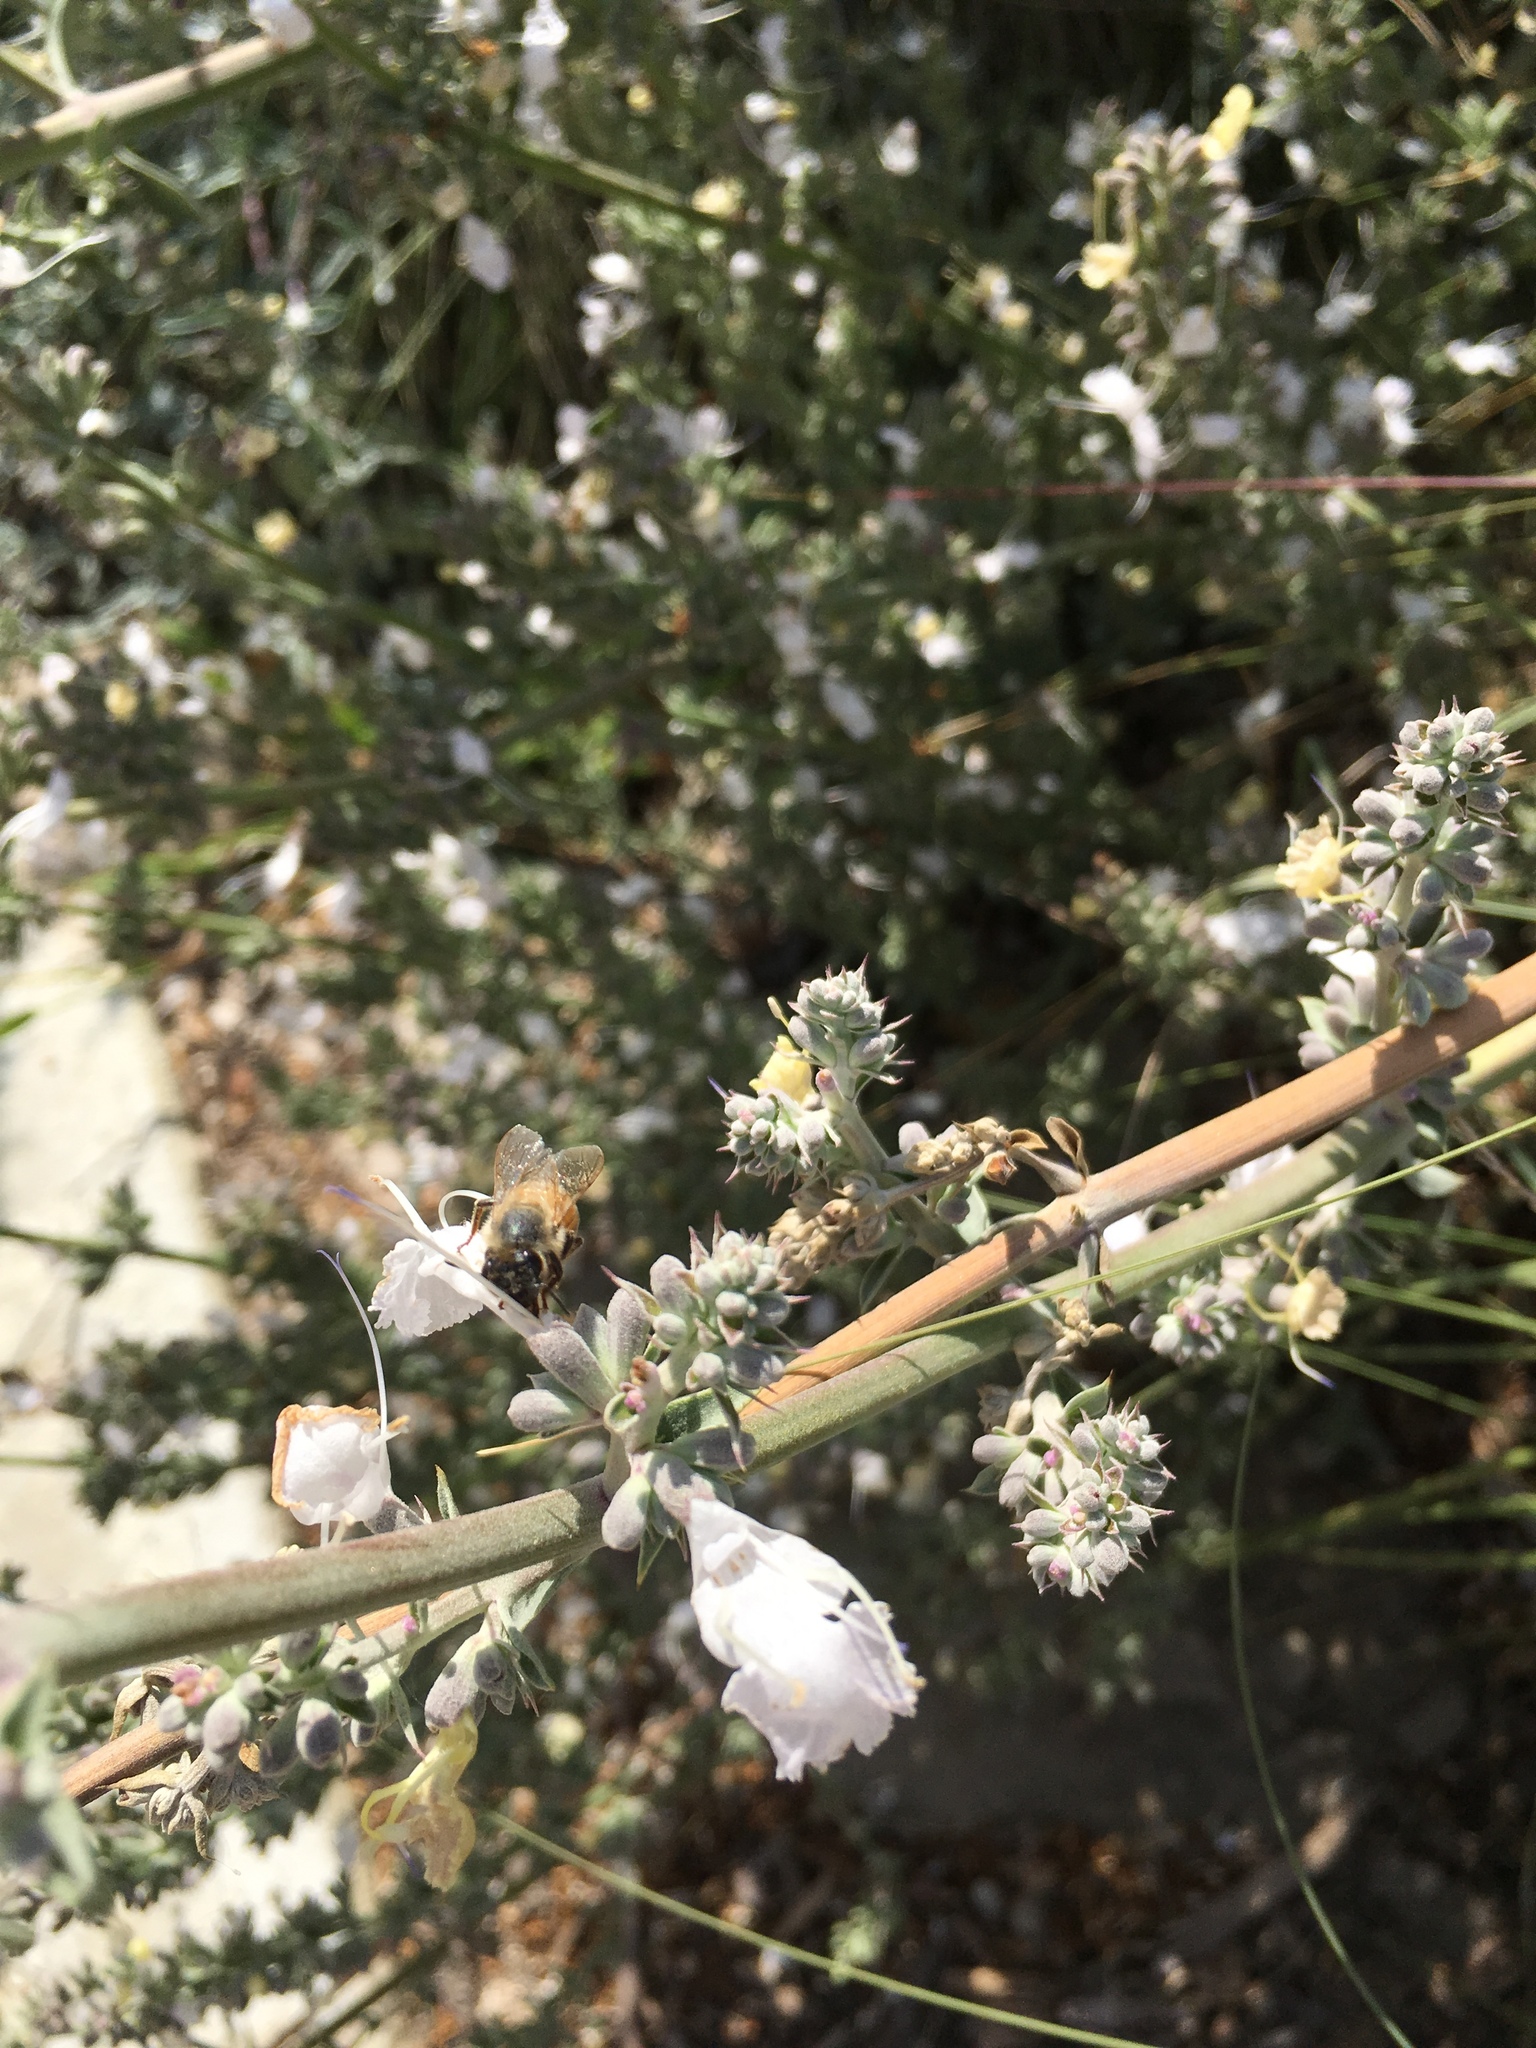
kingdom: Animalia
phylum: Arthropoda
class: Insecta
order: Hymenoptera
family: Apidae
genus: Apis
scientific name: Apis mellifera
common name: Honey bee
